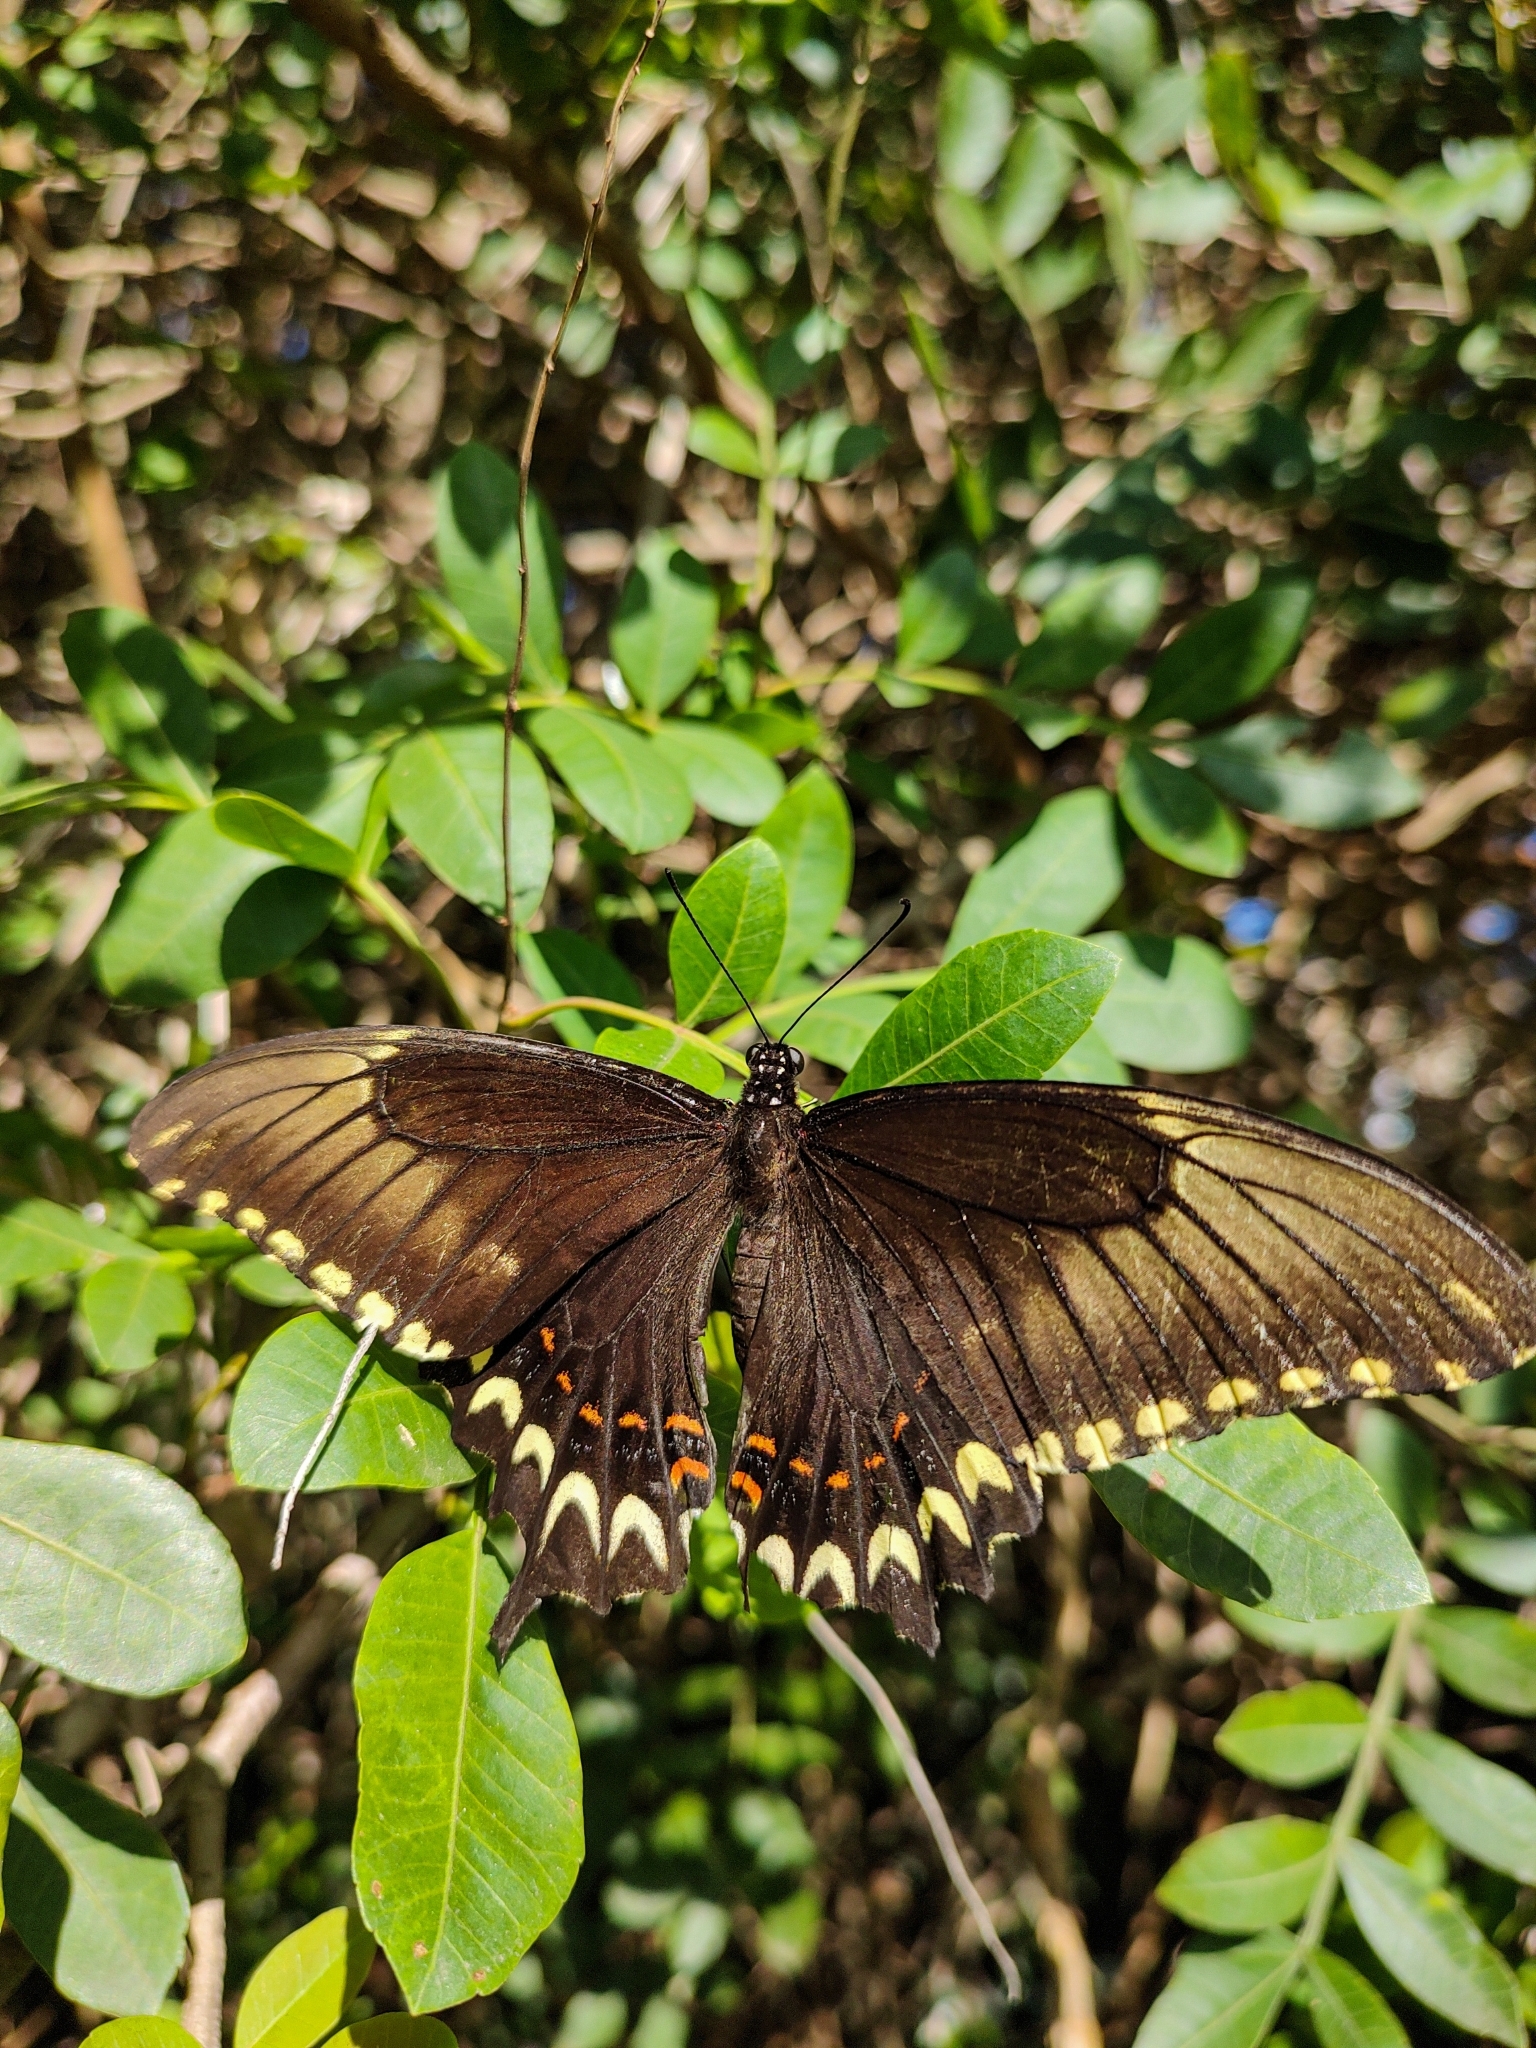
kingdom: Animalia
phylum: Arthropoda
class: Insecta
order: Lepidoptera
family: Papilionidae
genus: Papilio
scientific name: Papilio astyalus
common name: Astyalus swallowtail
